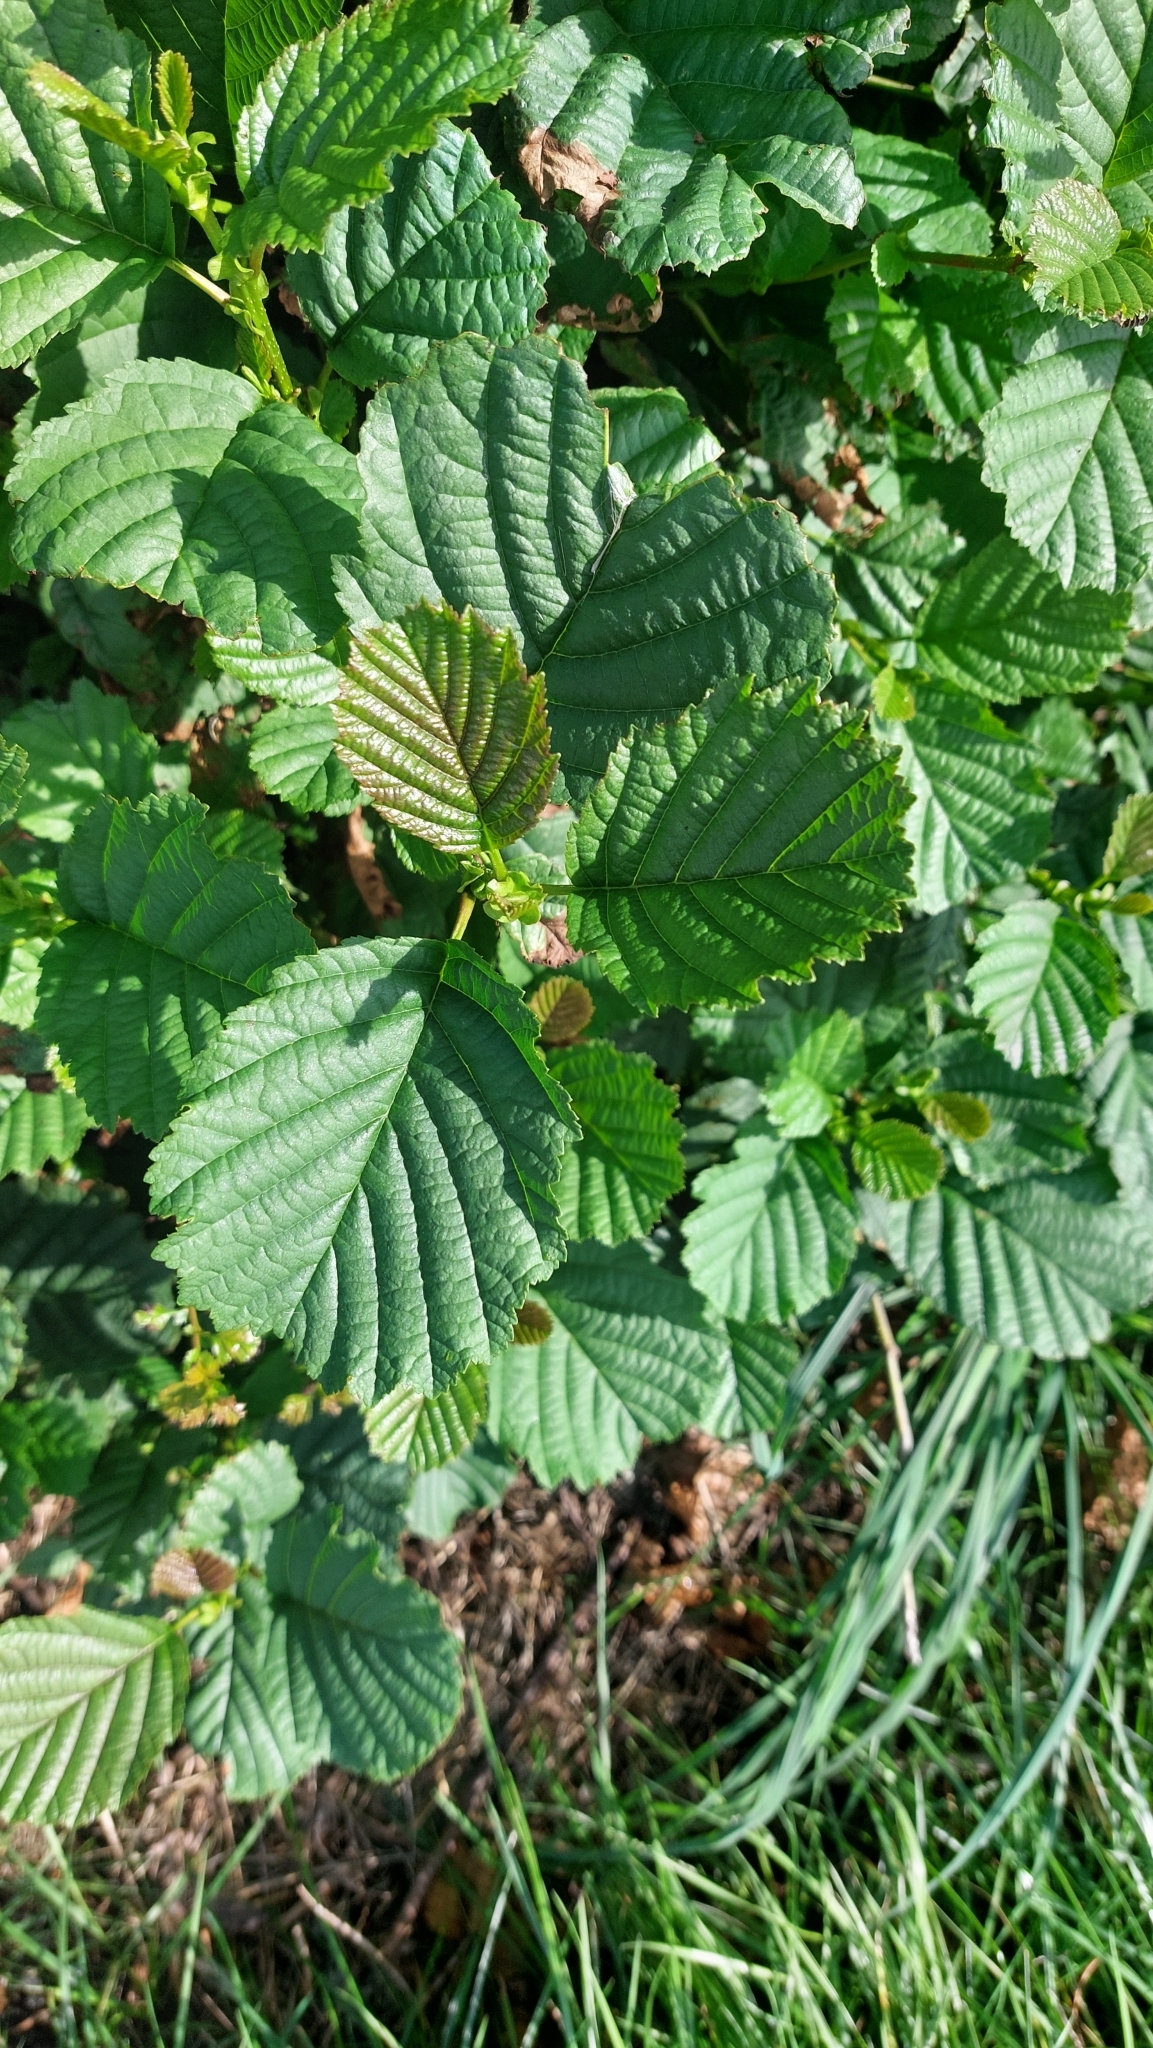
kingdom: Plantae
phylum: Tracheophyta
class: Magnoliopsida
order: Fagales
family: Betulaceae
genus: Alnus
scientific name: Alnus glutinosa
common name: Black alder
